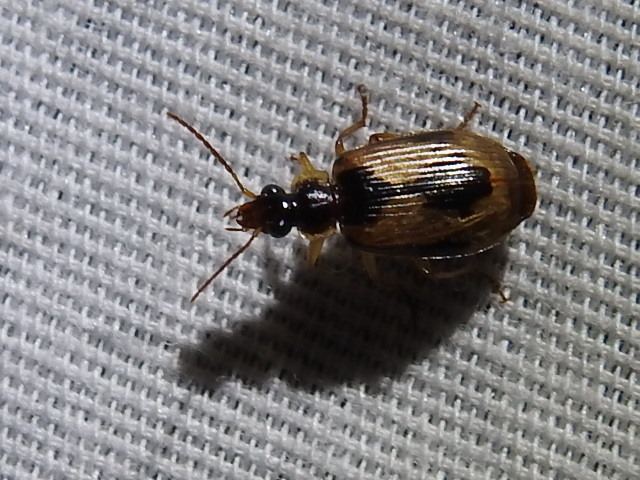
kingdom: Animalia
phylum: Arthropoda
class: Insecta
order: Coleoptera
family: Carabidae
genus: Lebia
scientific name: Lebia fuscata
